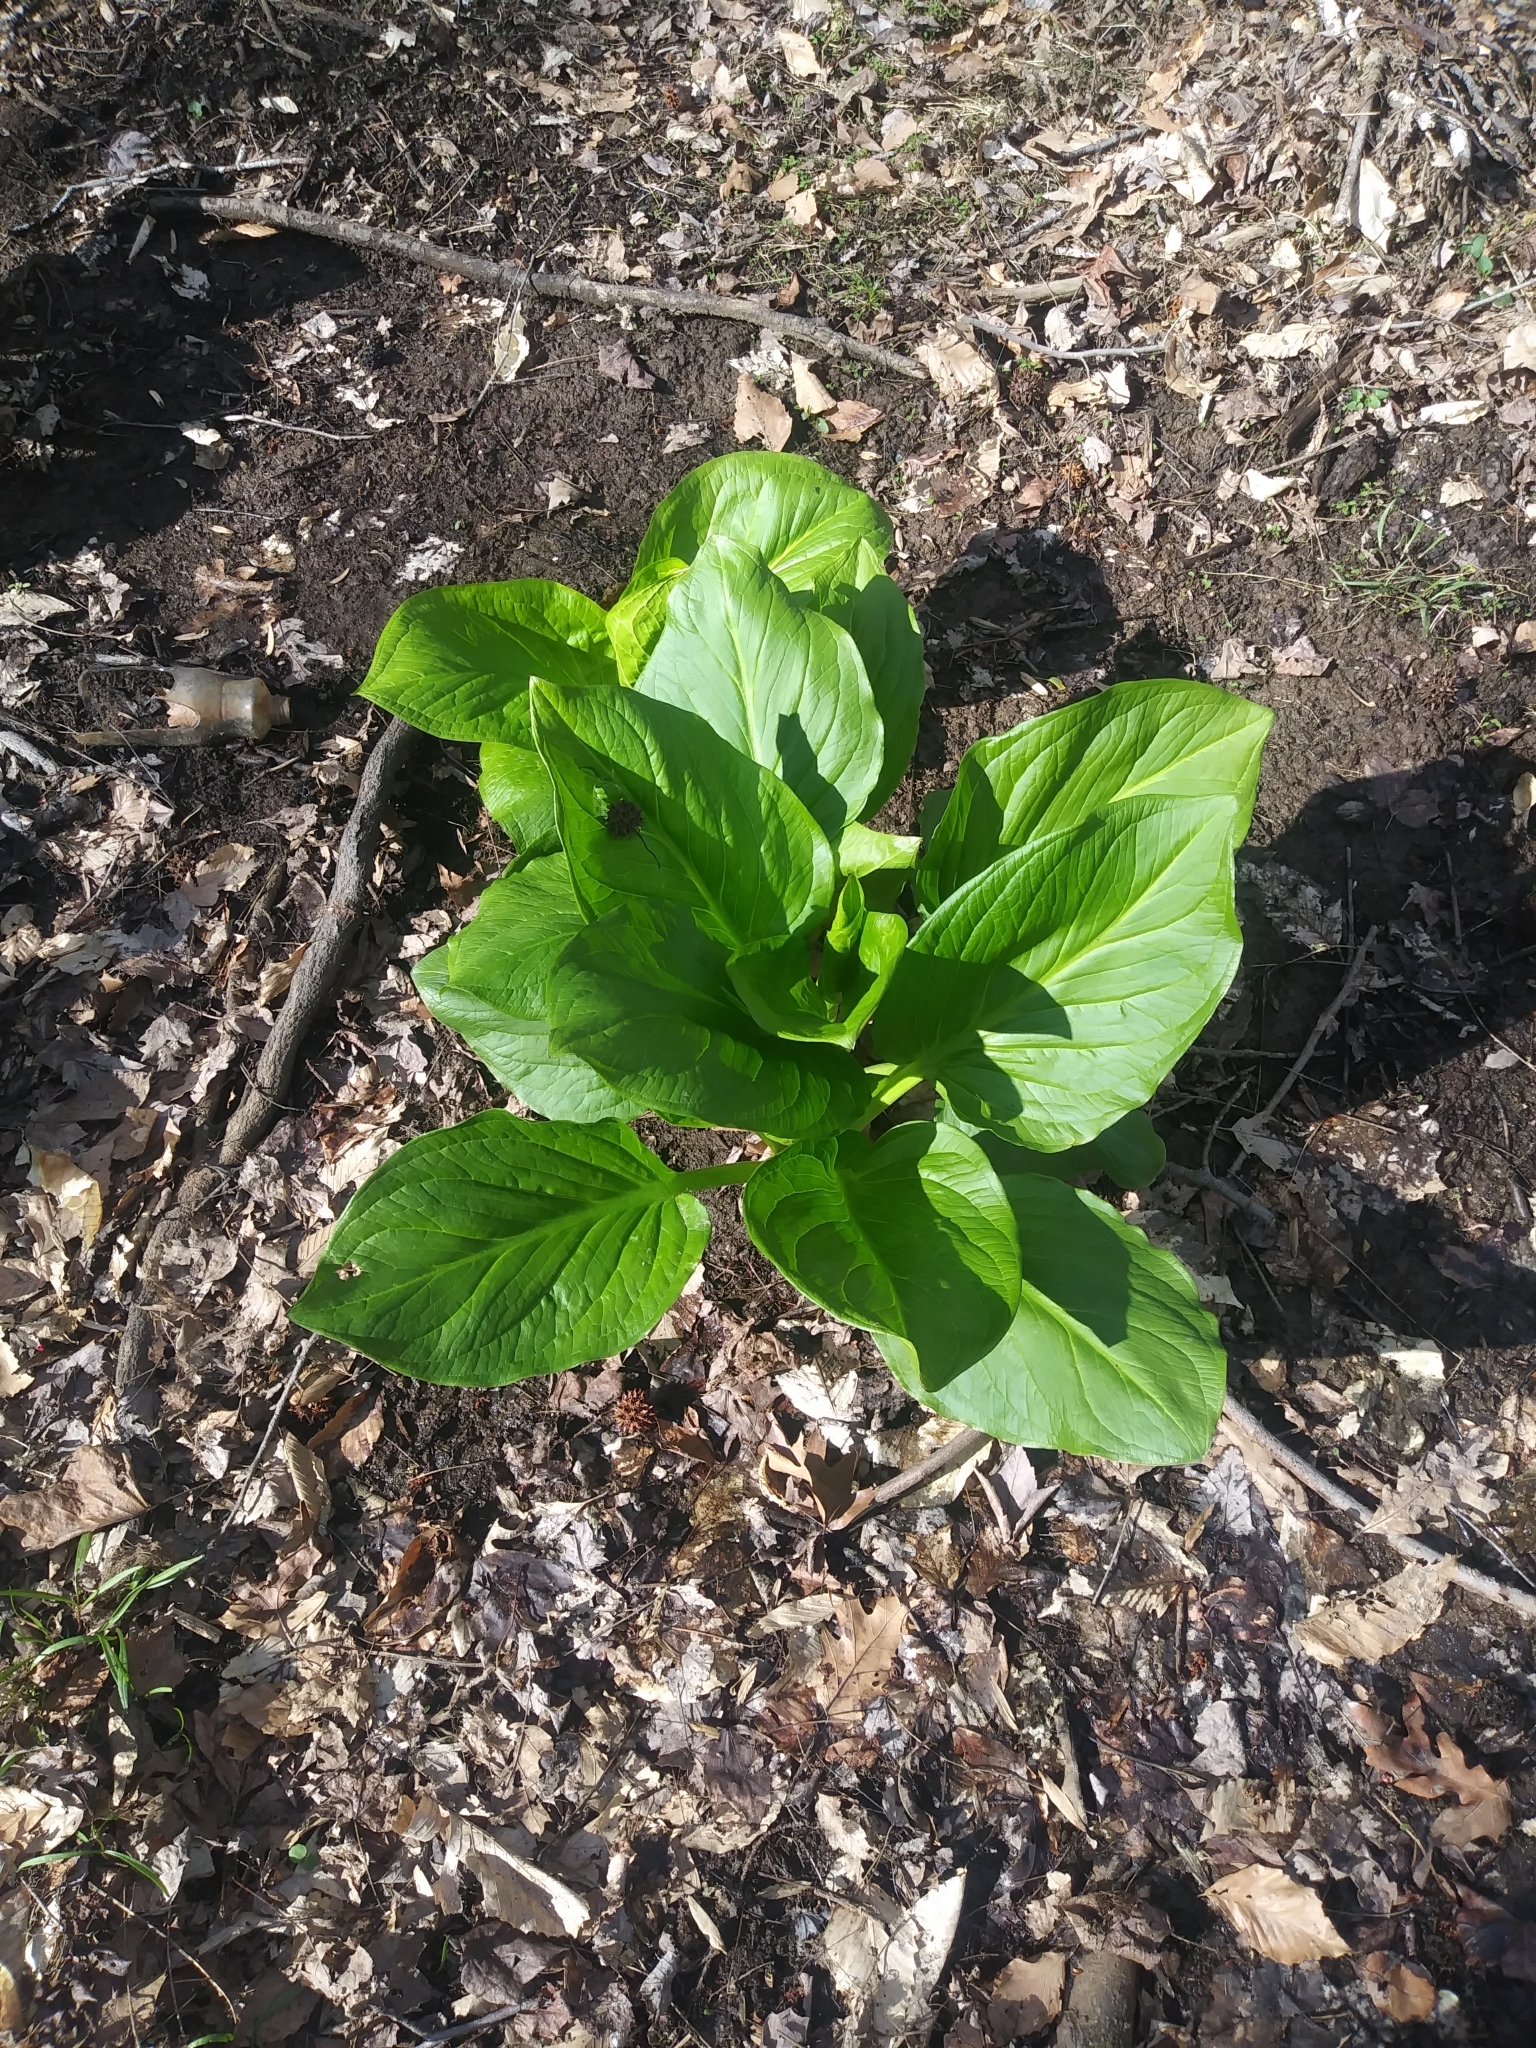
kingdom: Plantae
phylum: Tracheophyta
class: Liliopsida
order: Alismatales
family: Araceae
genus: Symplocarpus
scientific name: Symplocarpus foetidus
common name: Eastern skunk cabbage
